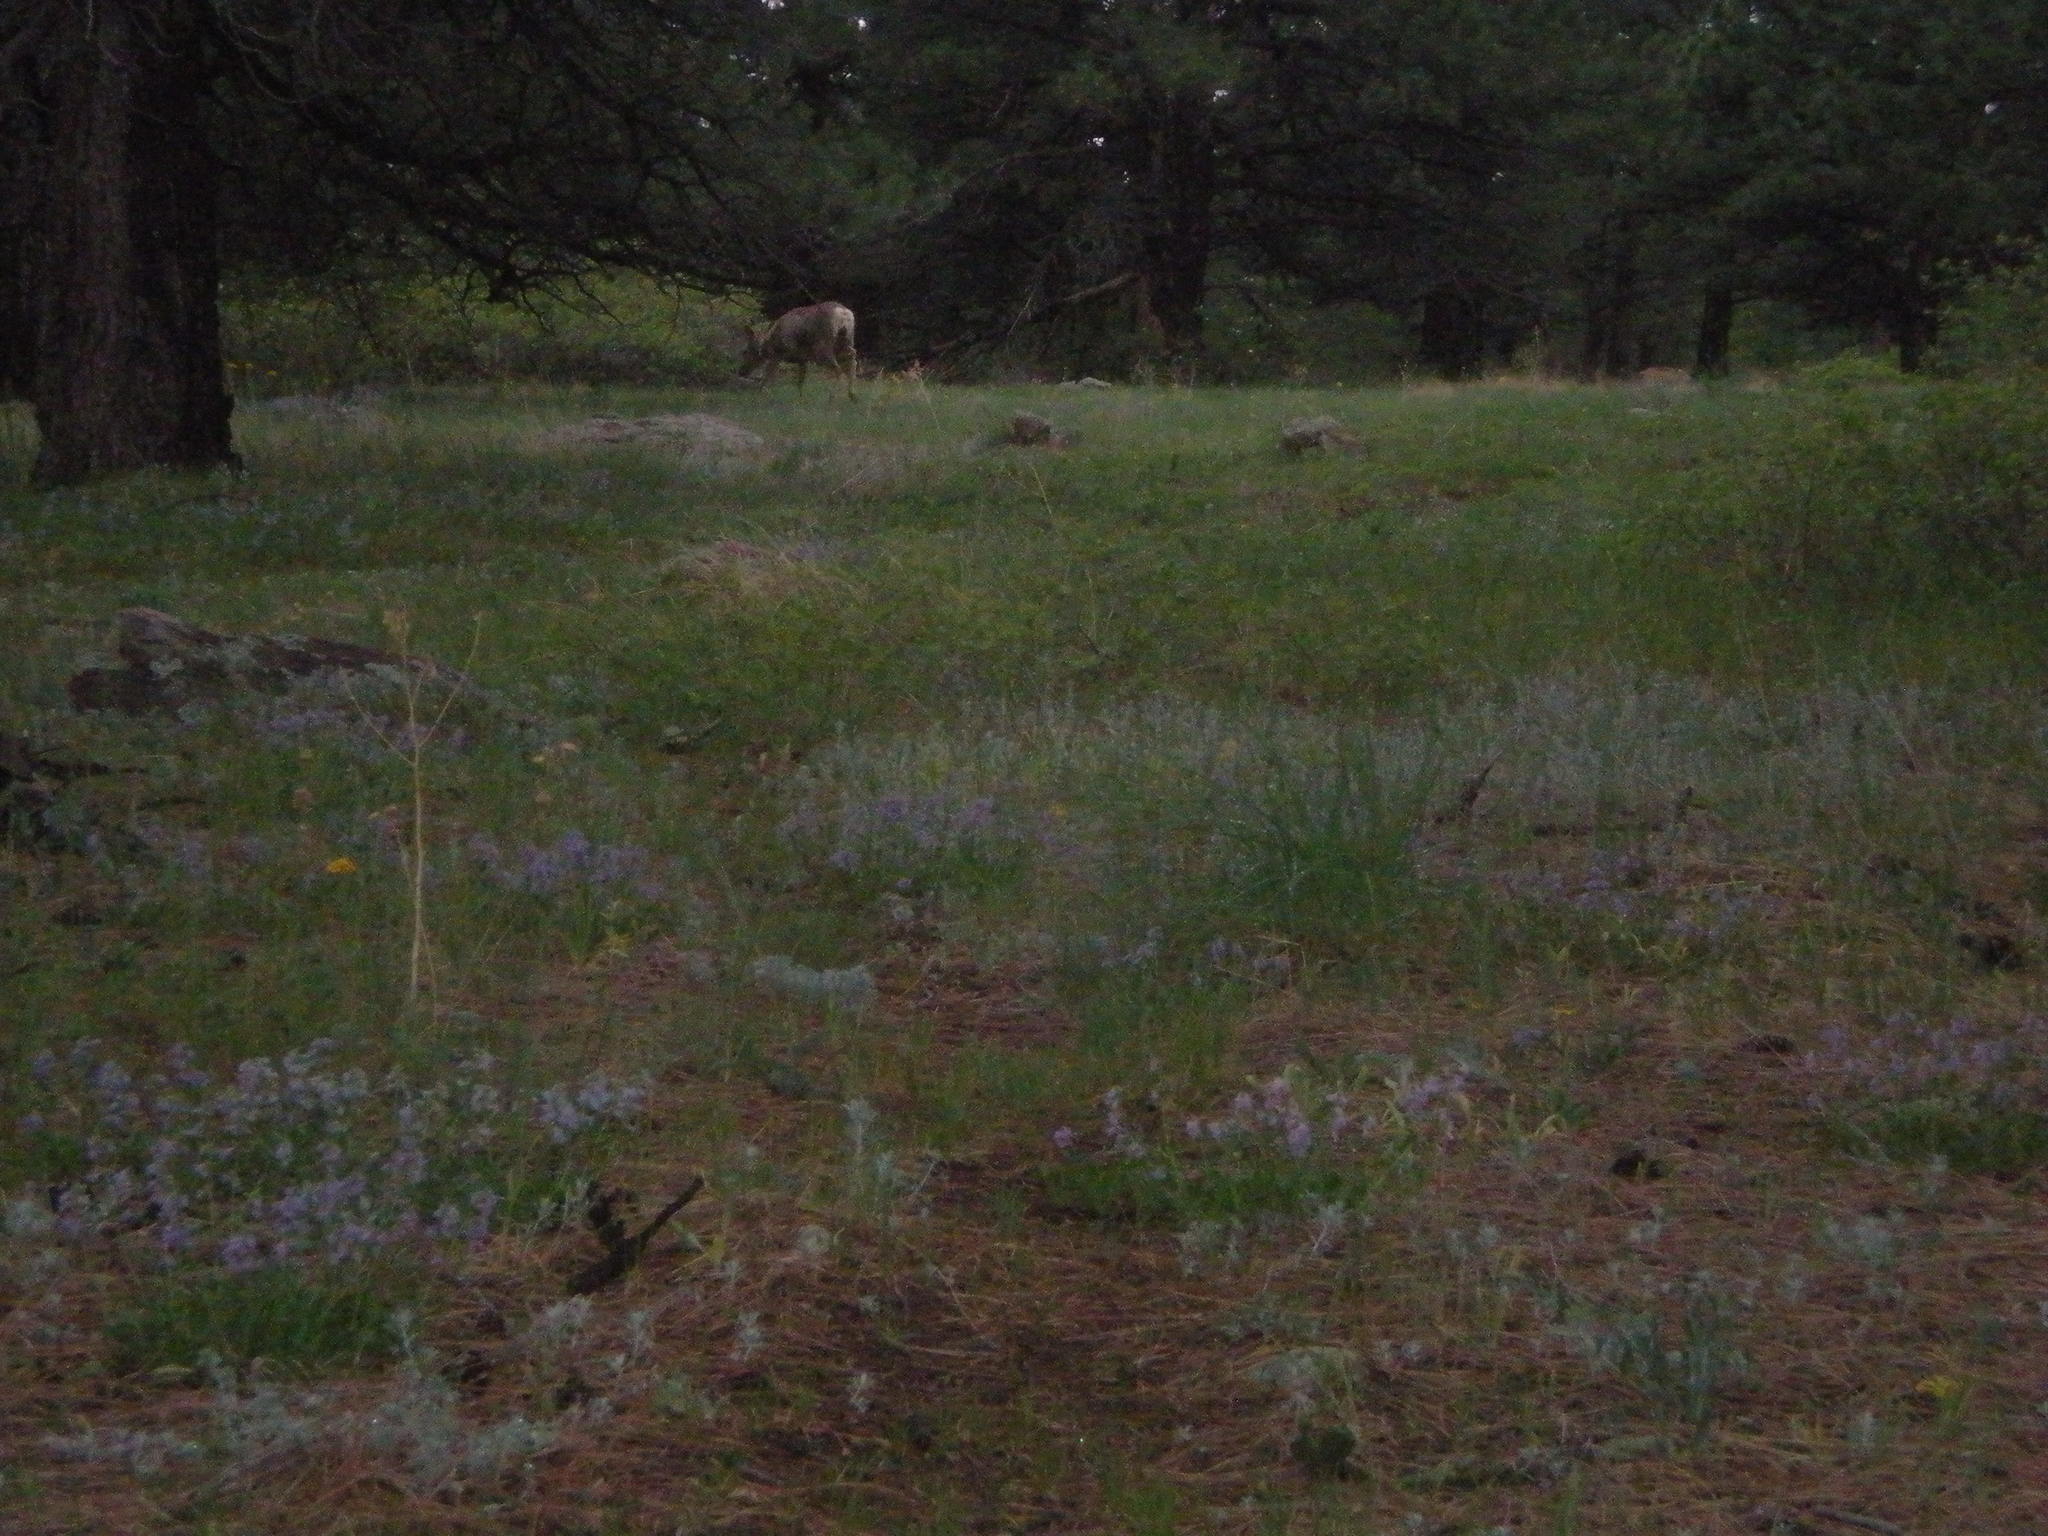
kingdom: Animalia
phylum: Chordata
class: Mammalia
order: Artiodactyla
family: Cervidae
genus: Odocoileus
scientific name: Odocoileus hemionus
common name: Mule deer
